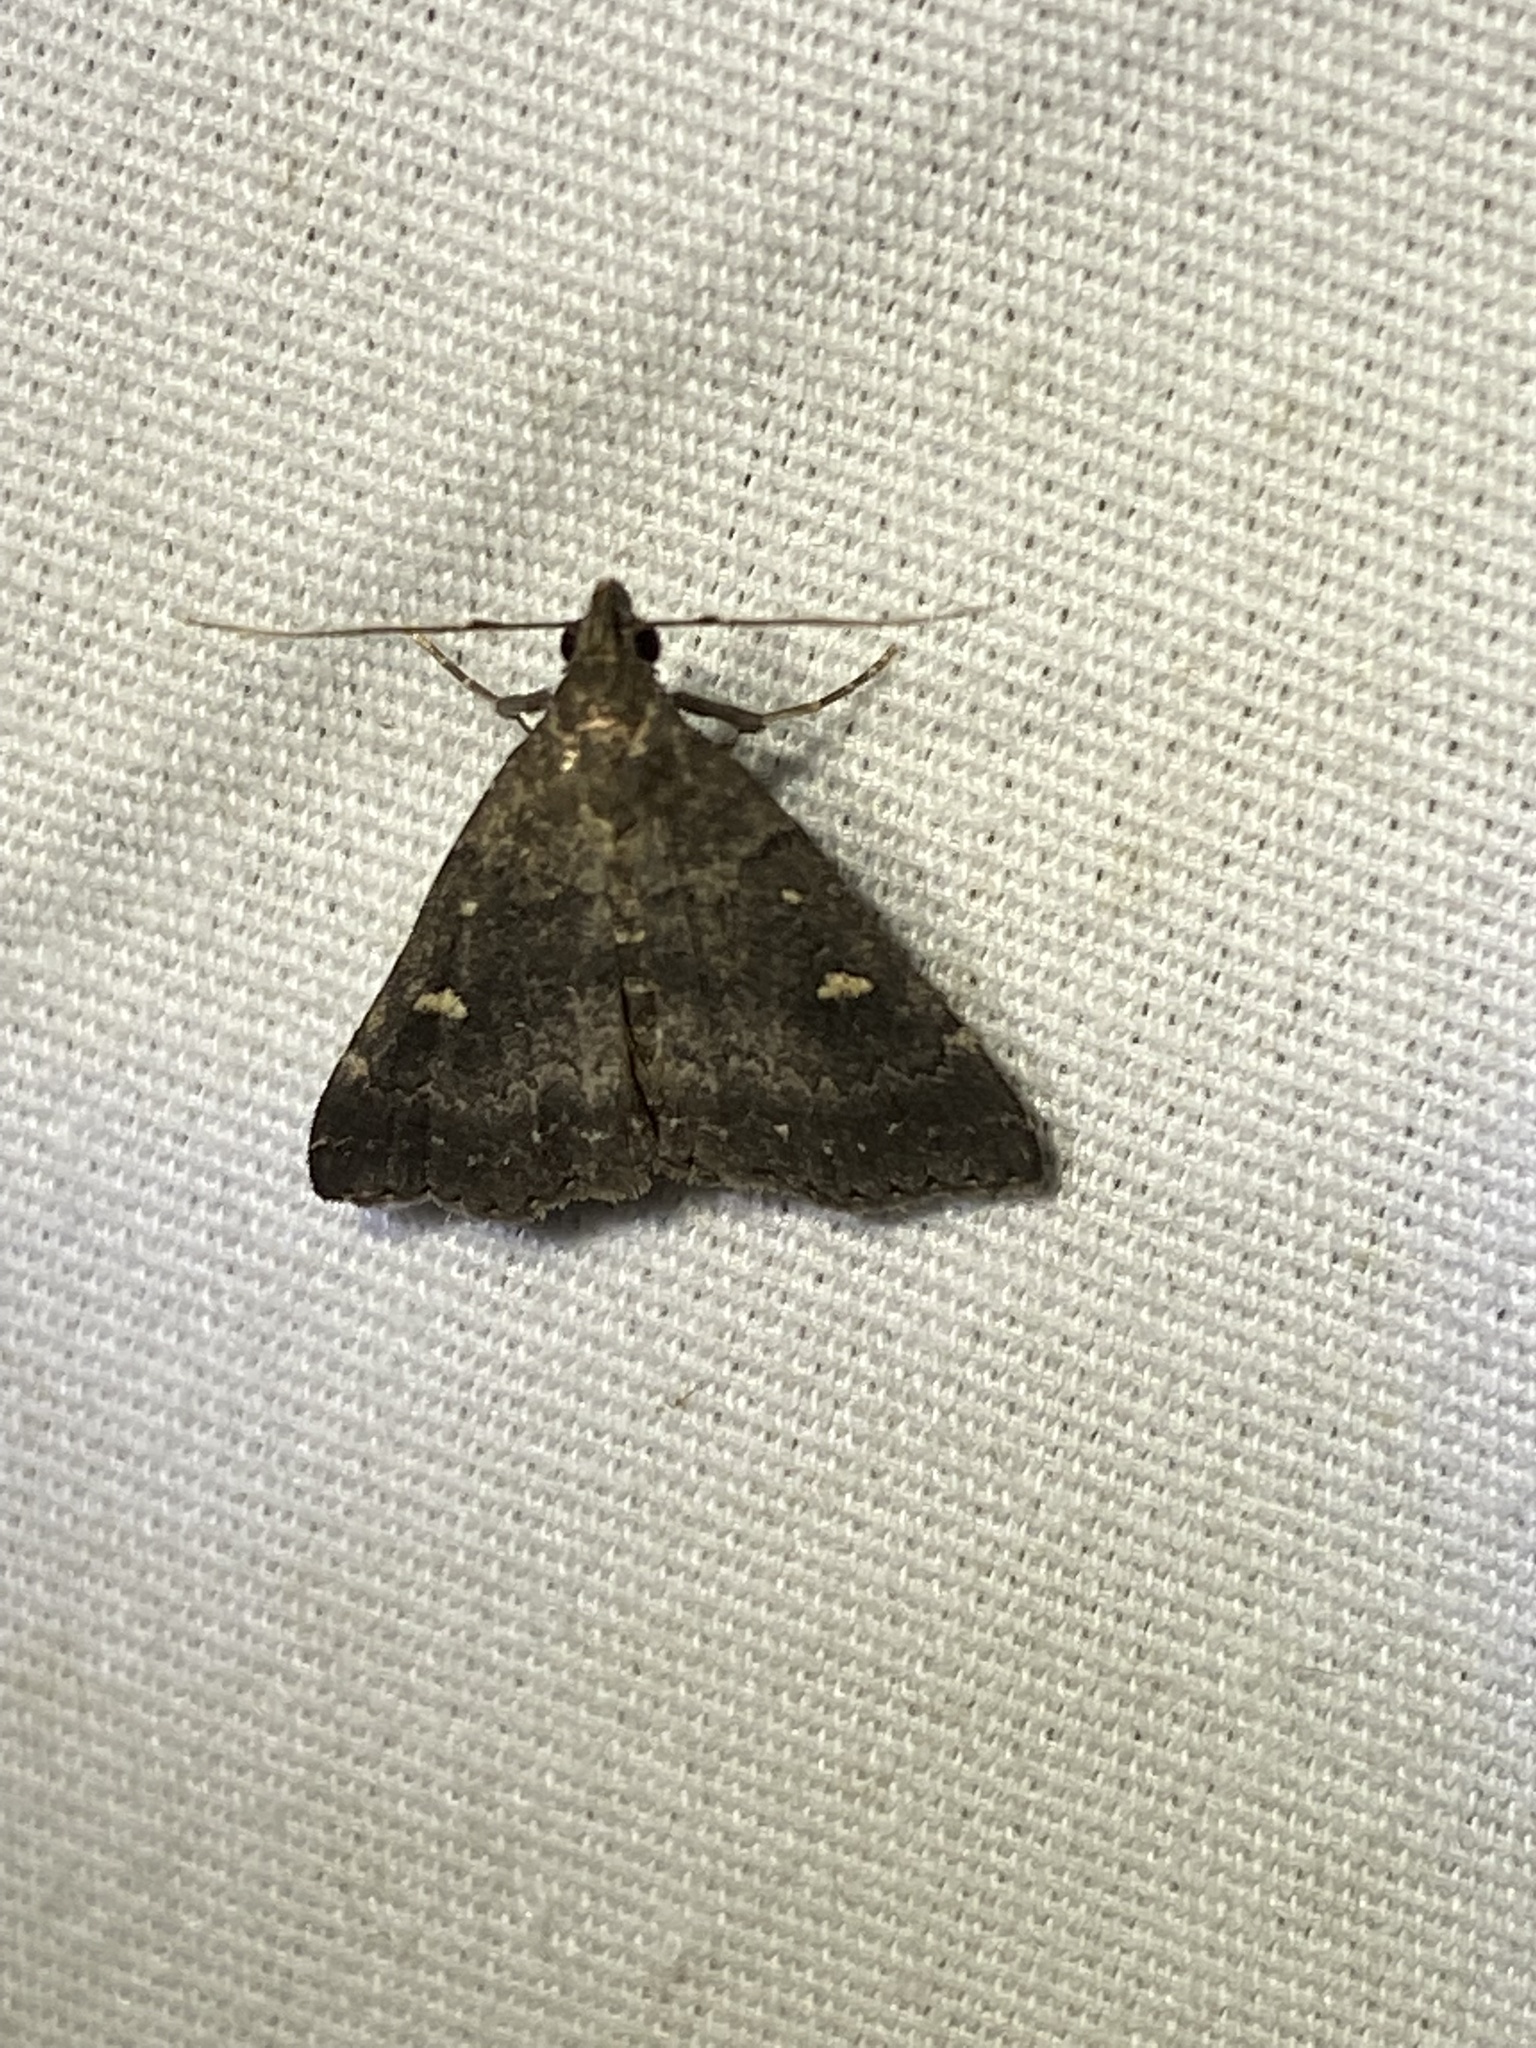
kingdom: Animalia
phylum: Arthropoda
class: Insecta
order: Lepidoptera
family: Erebidae
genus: Tetanolita
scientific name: Tetanolita mynesalis
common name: Smoky tetanolita moth
